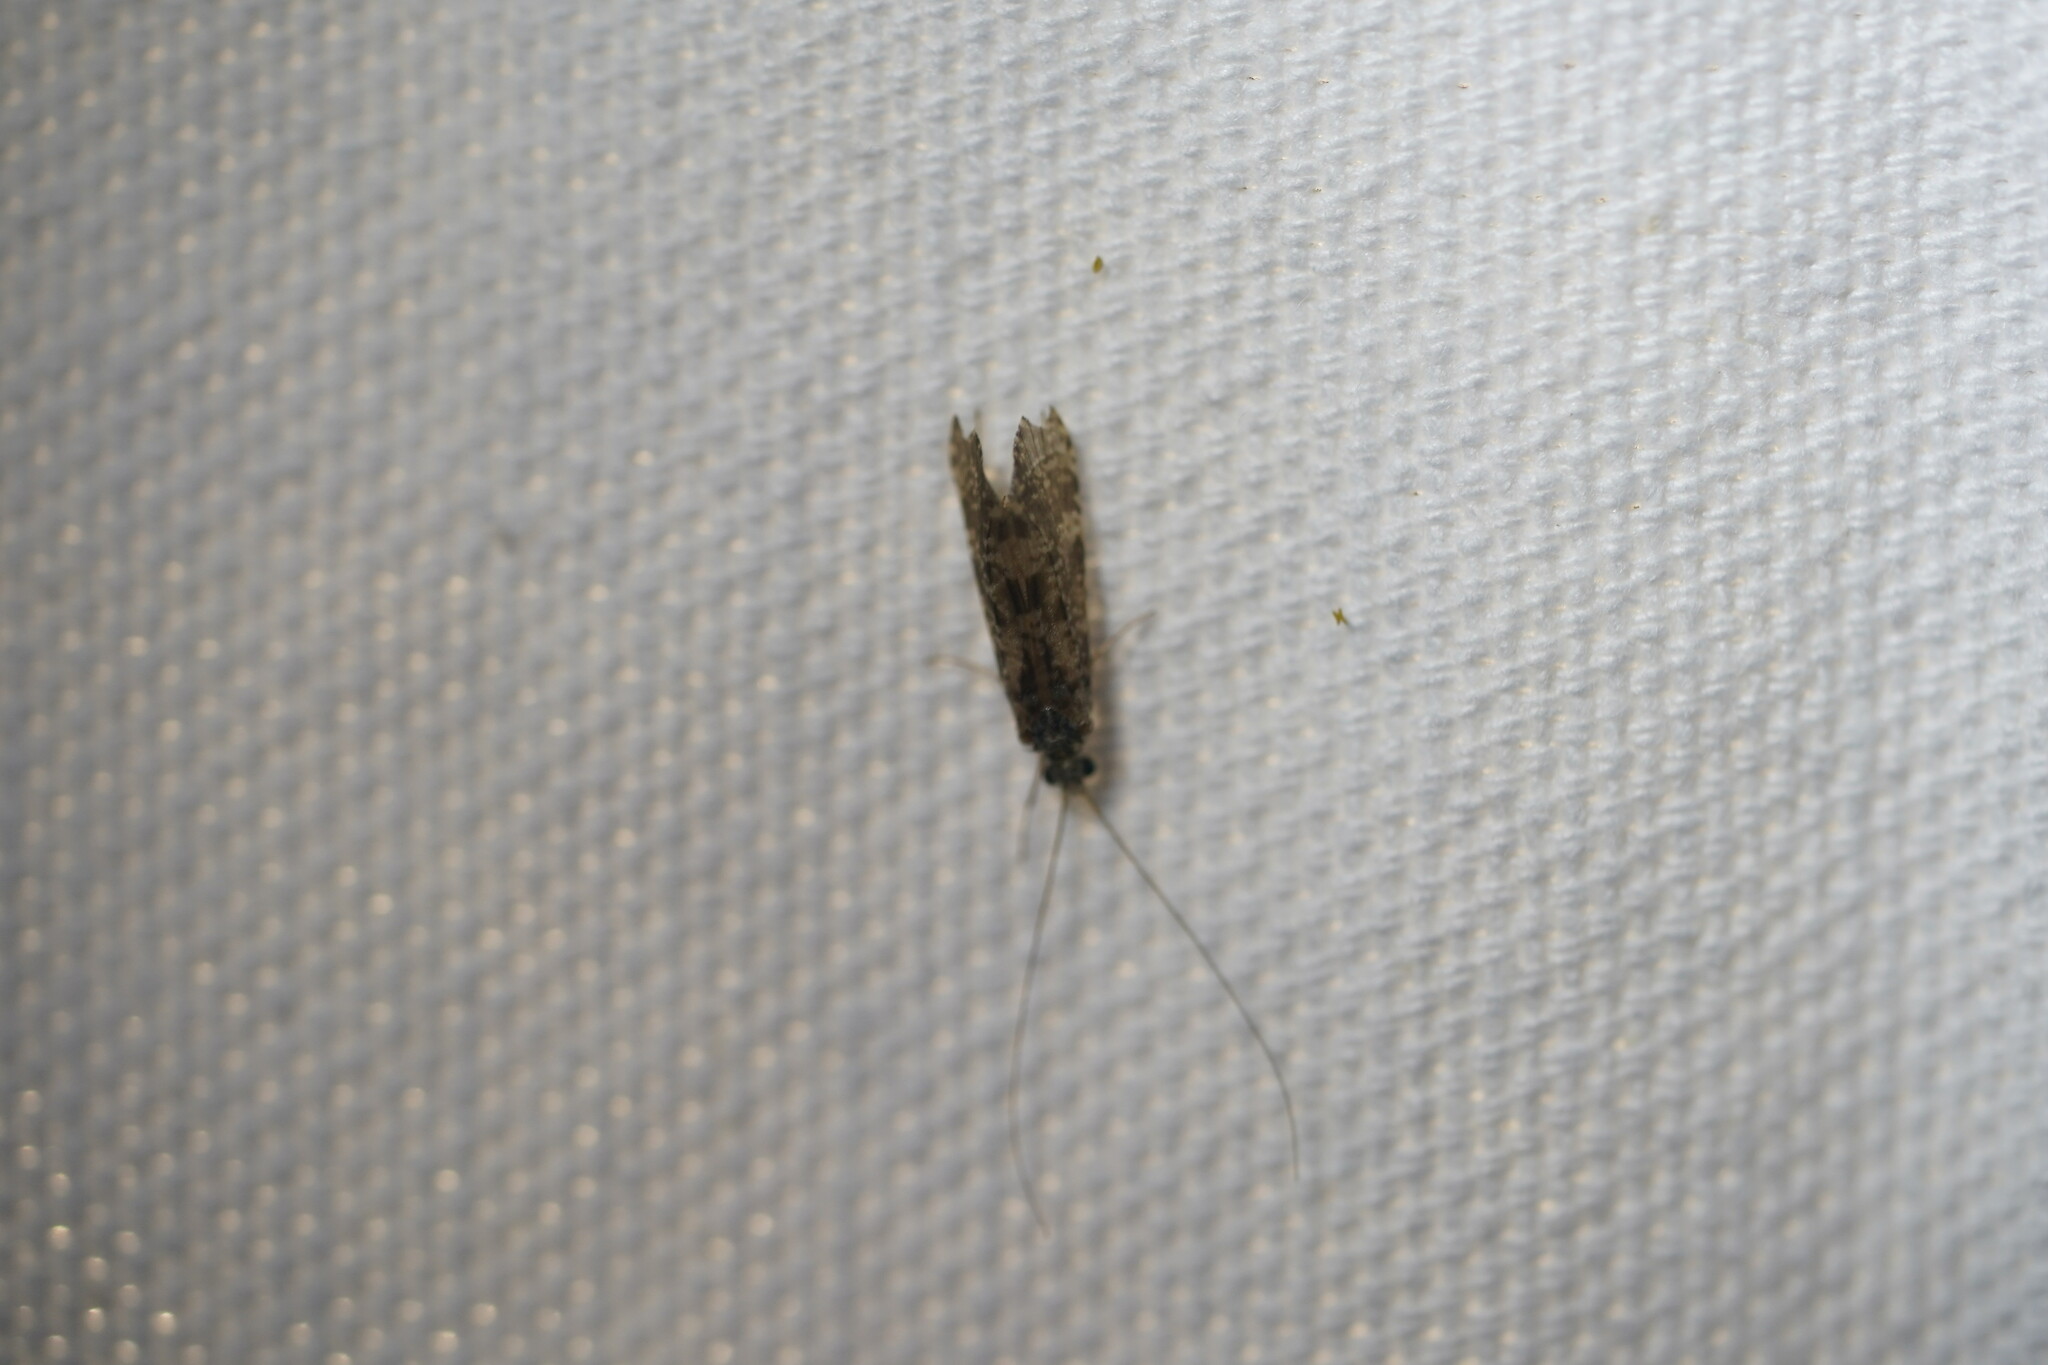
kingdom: Animalia
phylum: Arthropoda
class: Insecta
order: Trichoptera
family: Leptoceridae
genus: Leptocerus
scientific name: Leptocerus americanus
